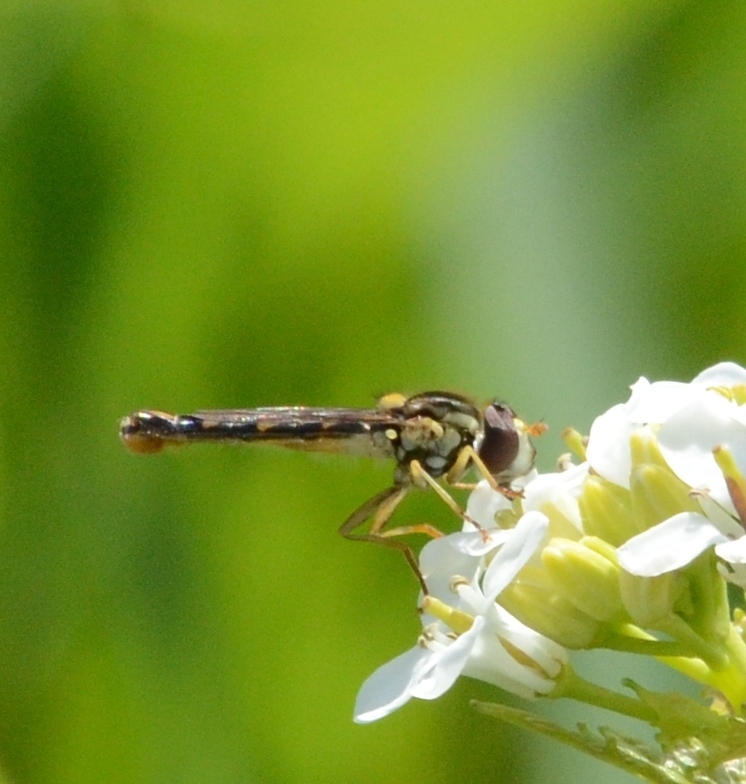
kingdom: Animalia
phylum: Arthropoda
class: Insecta
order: Diptera
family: Syrphidae
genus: Sphaerophoria
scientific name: Sphaerophoria scripta
